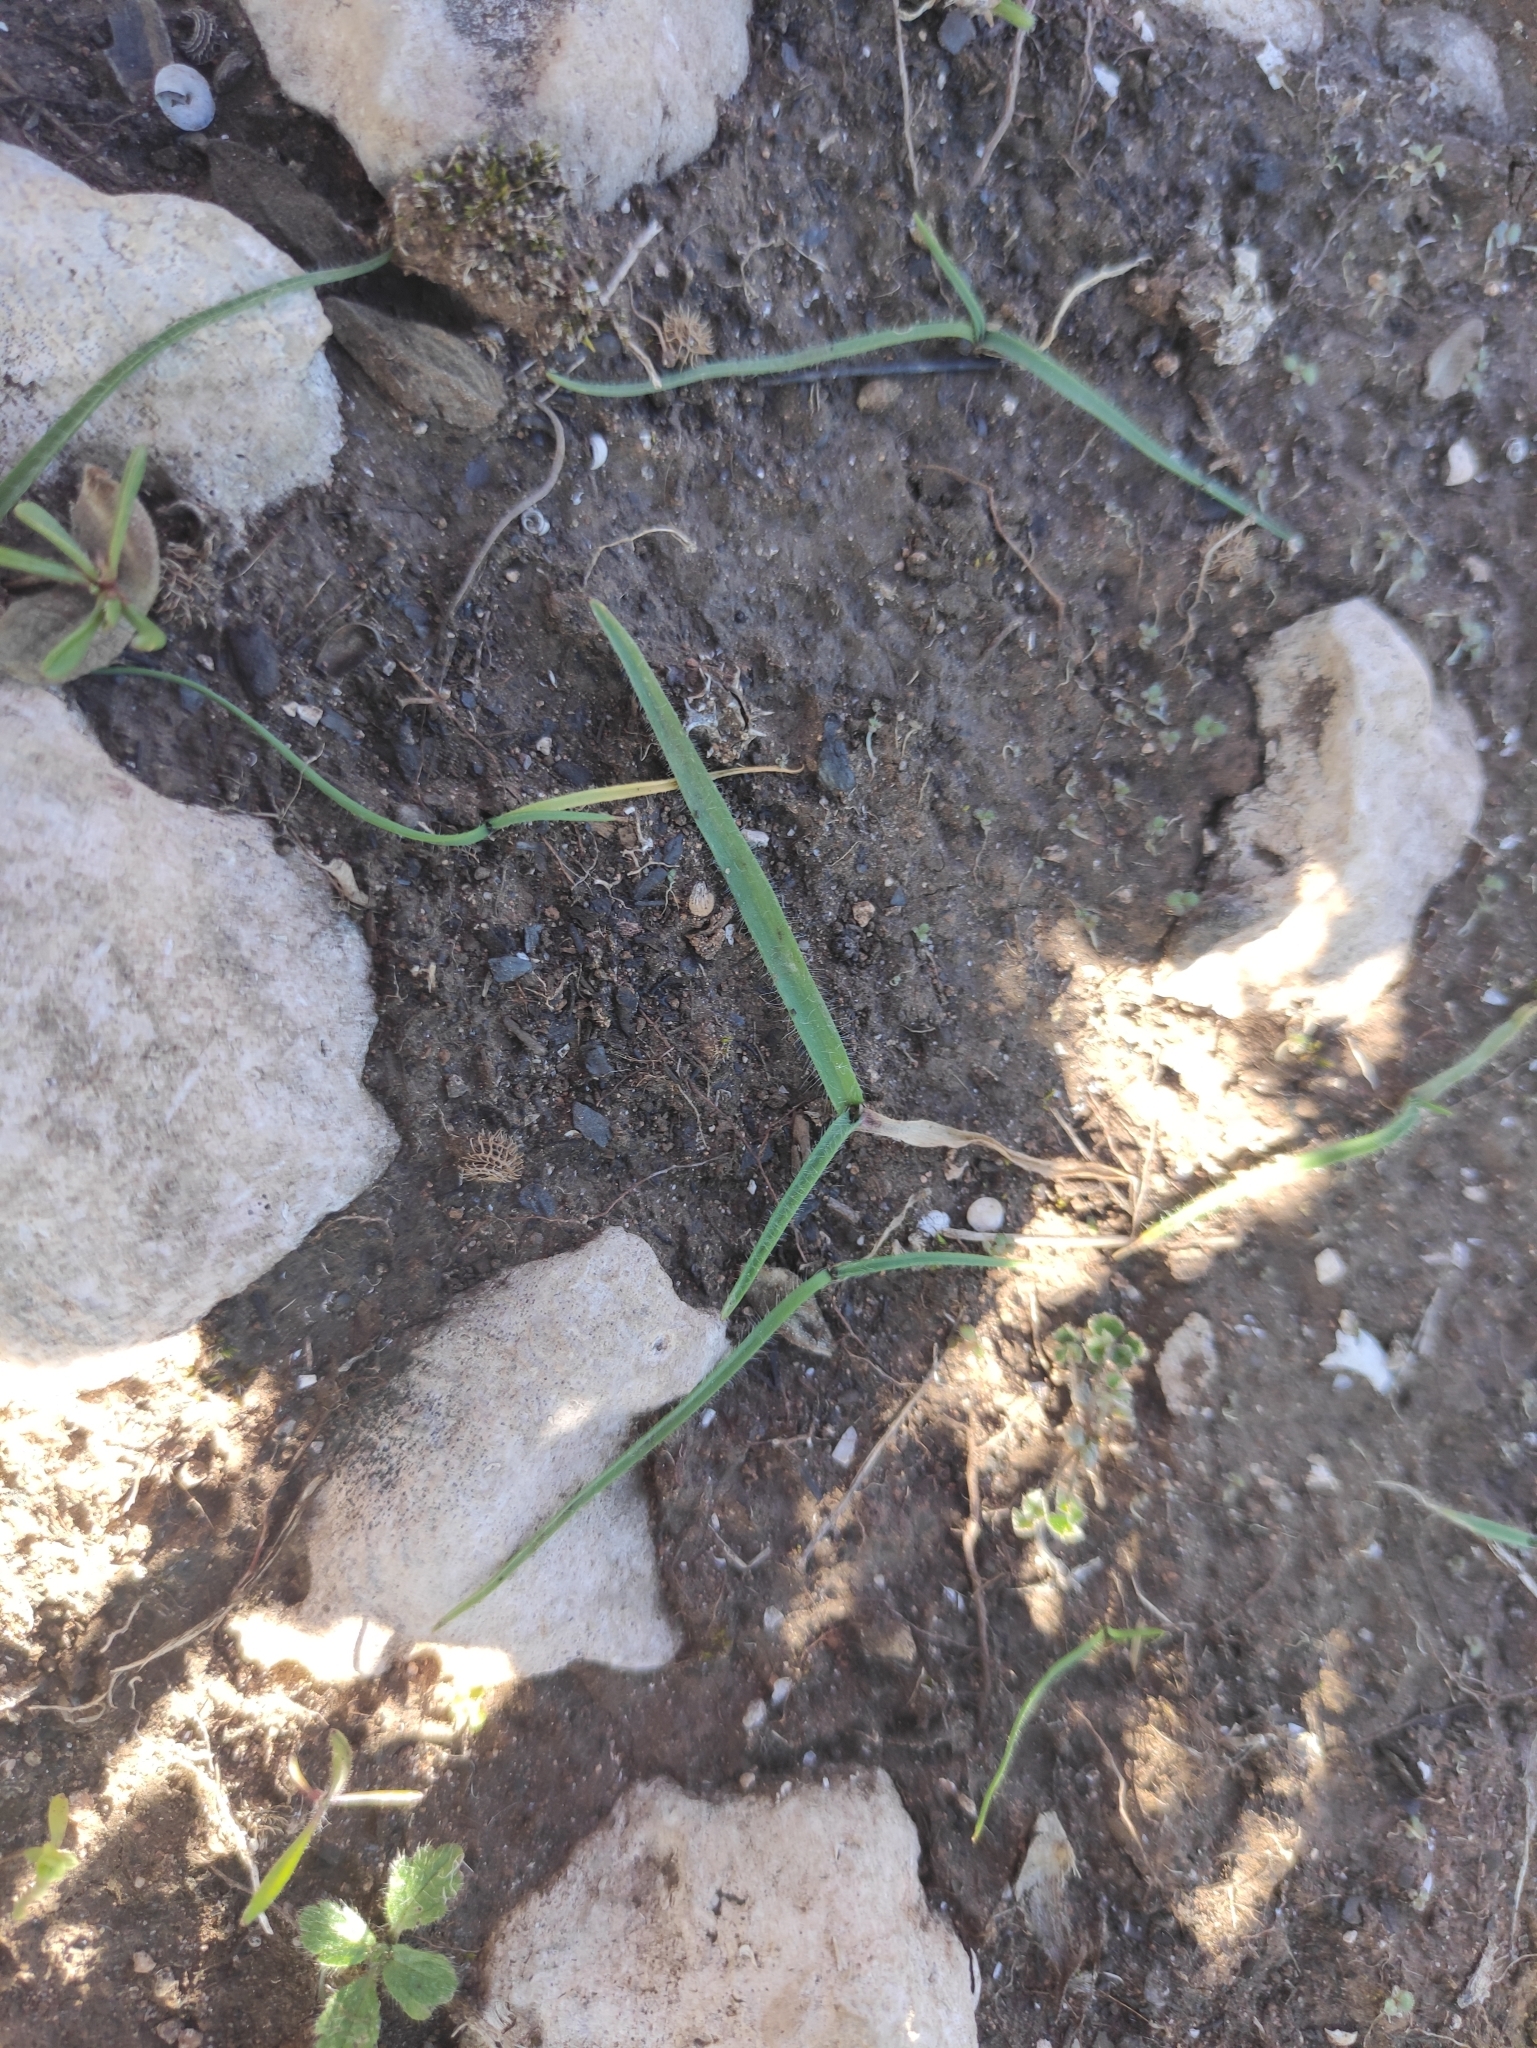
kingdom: Plantae
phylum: Tracheophyta
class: Liliopsida
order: Asparagales
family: Amaryllidaceae
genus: Allium
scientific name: Allium chamaemoly
